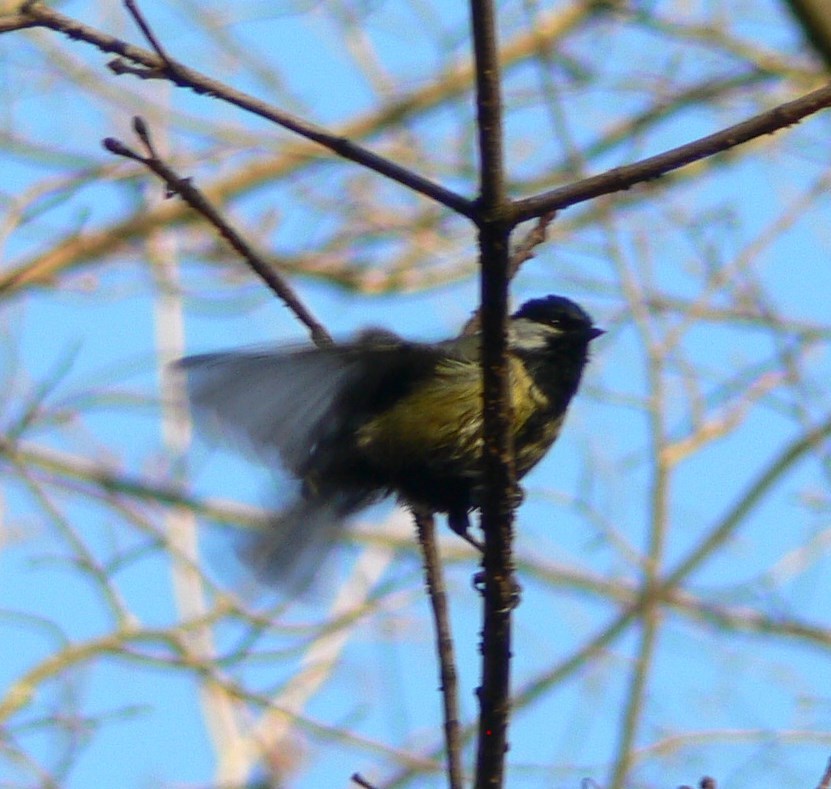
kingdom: Animalia
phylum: Chordata
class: Aves
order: Passeriformes
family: Paridae
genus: Parus
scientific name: Parus major
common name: Great tit
